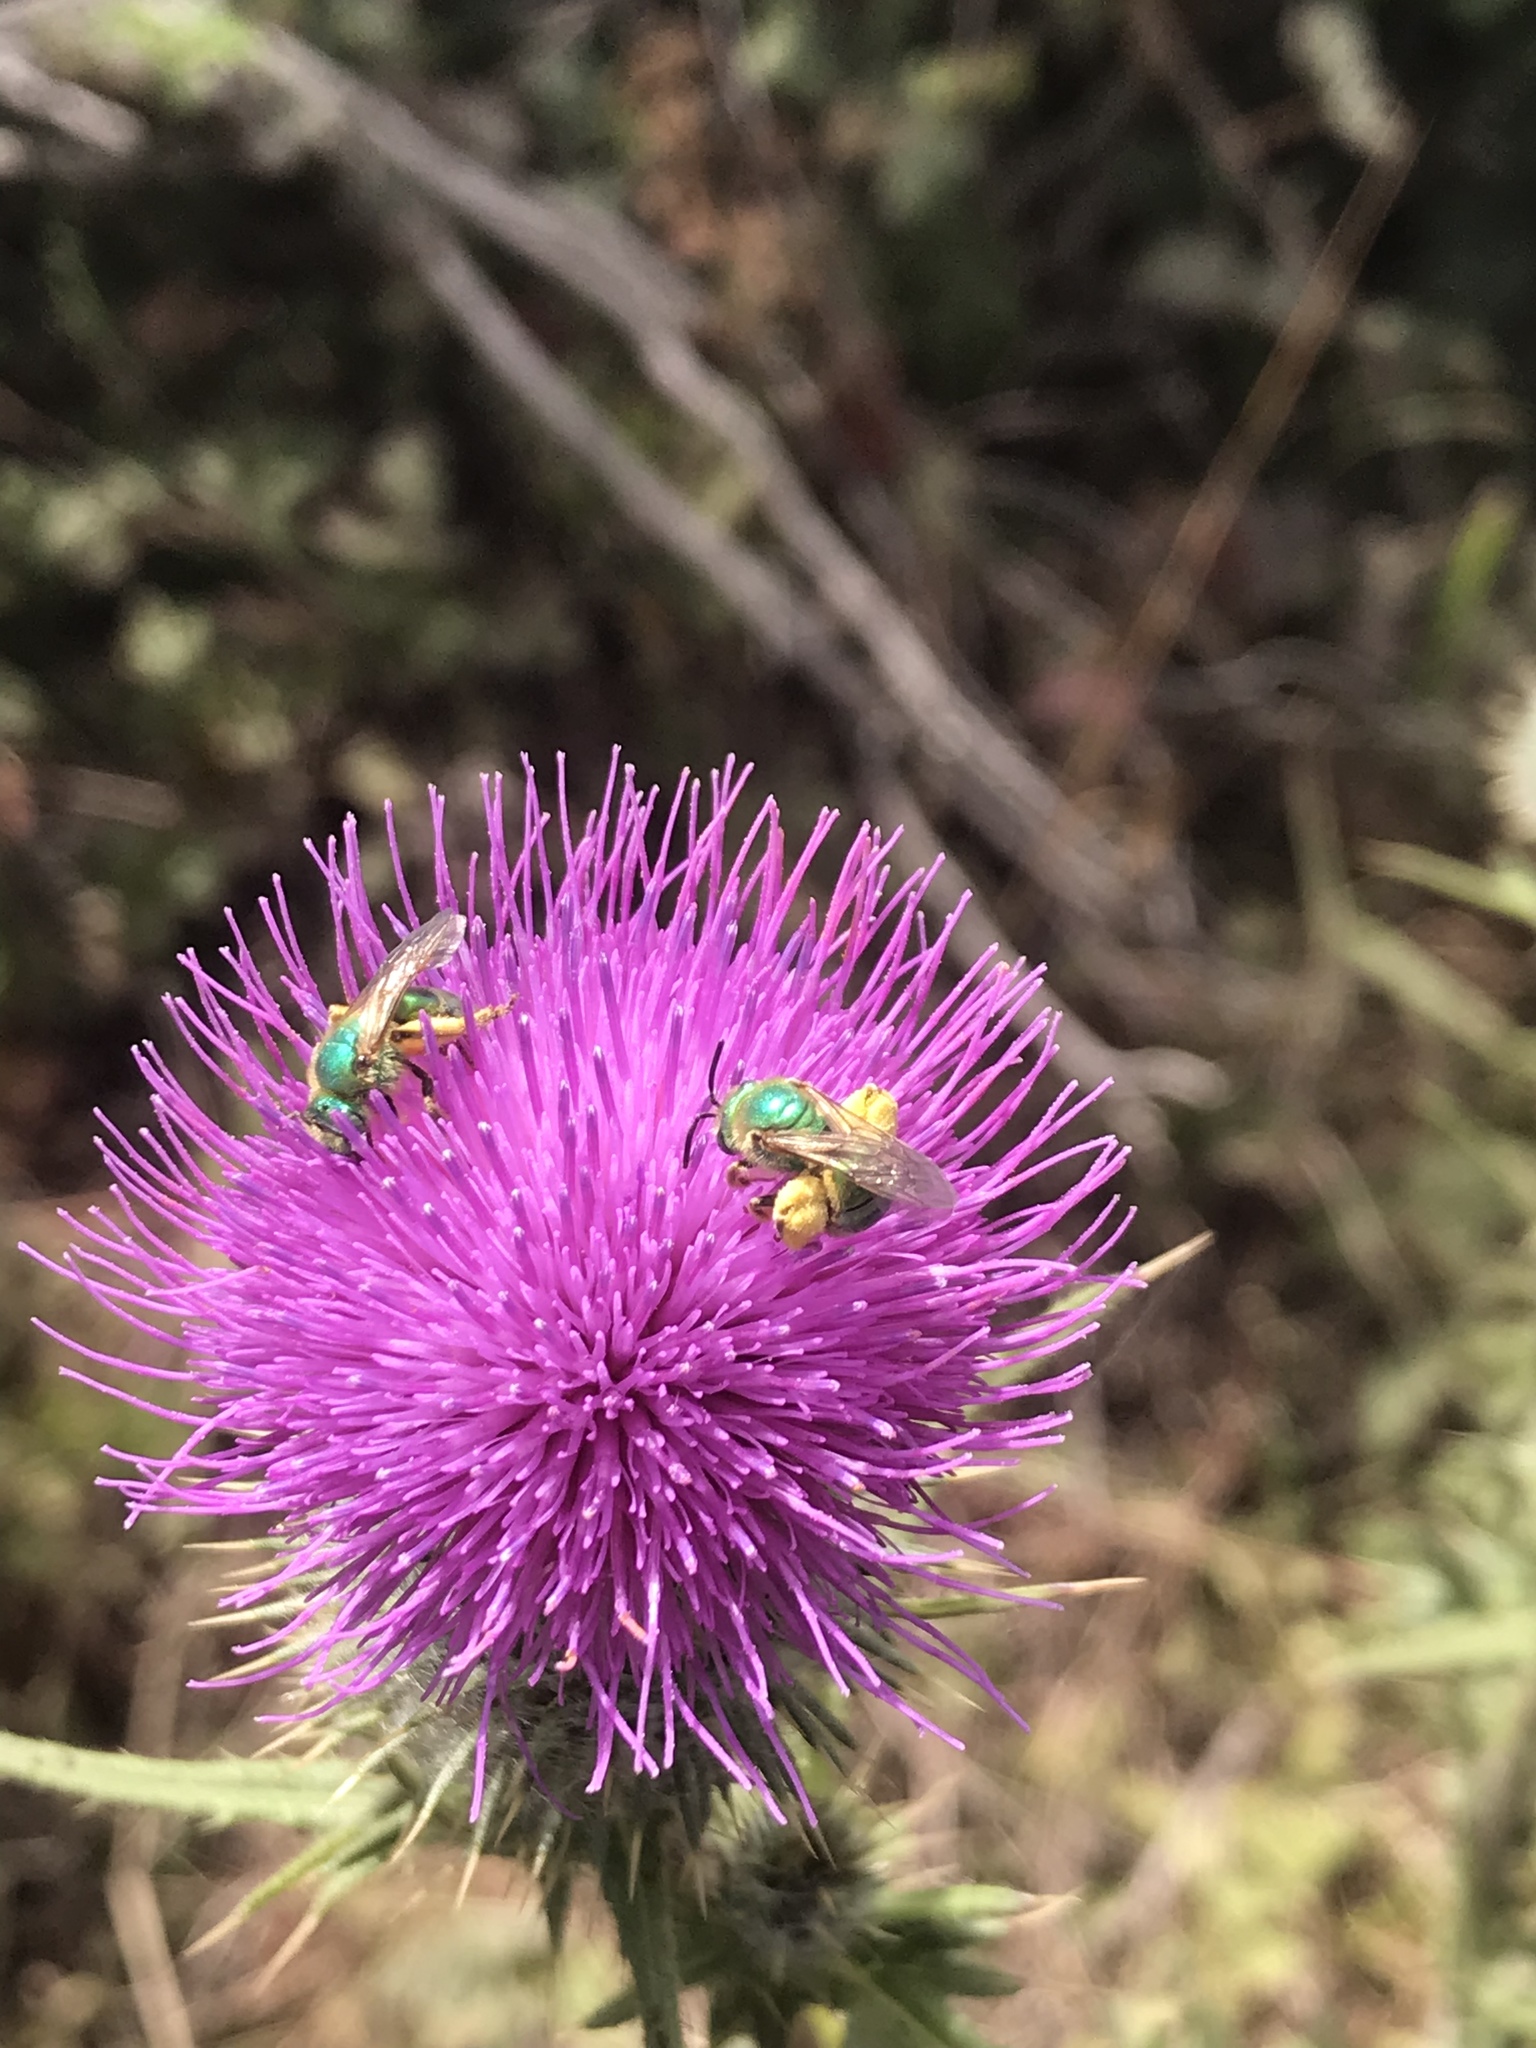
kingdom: Animalia
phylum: Arthropoda
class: Insecta
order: Hymenoptera
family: Halictidae
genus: Agapostemon
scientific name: Agapostemon texanus
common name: Texas striped sweat bee
